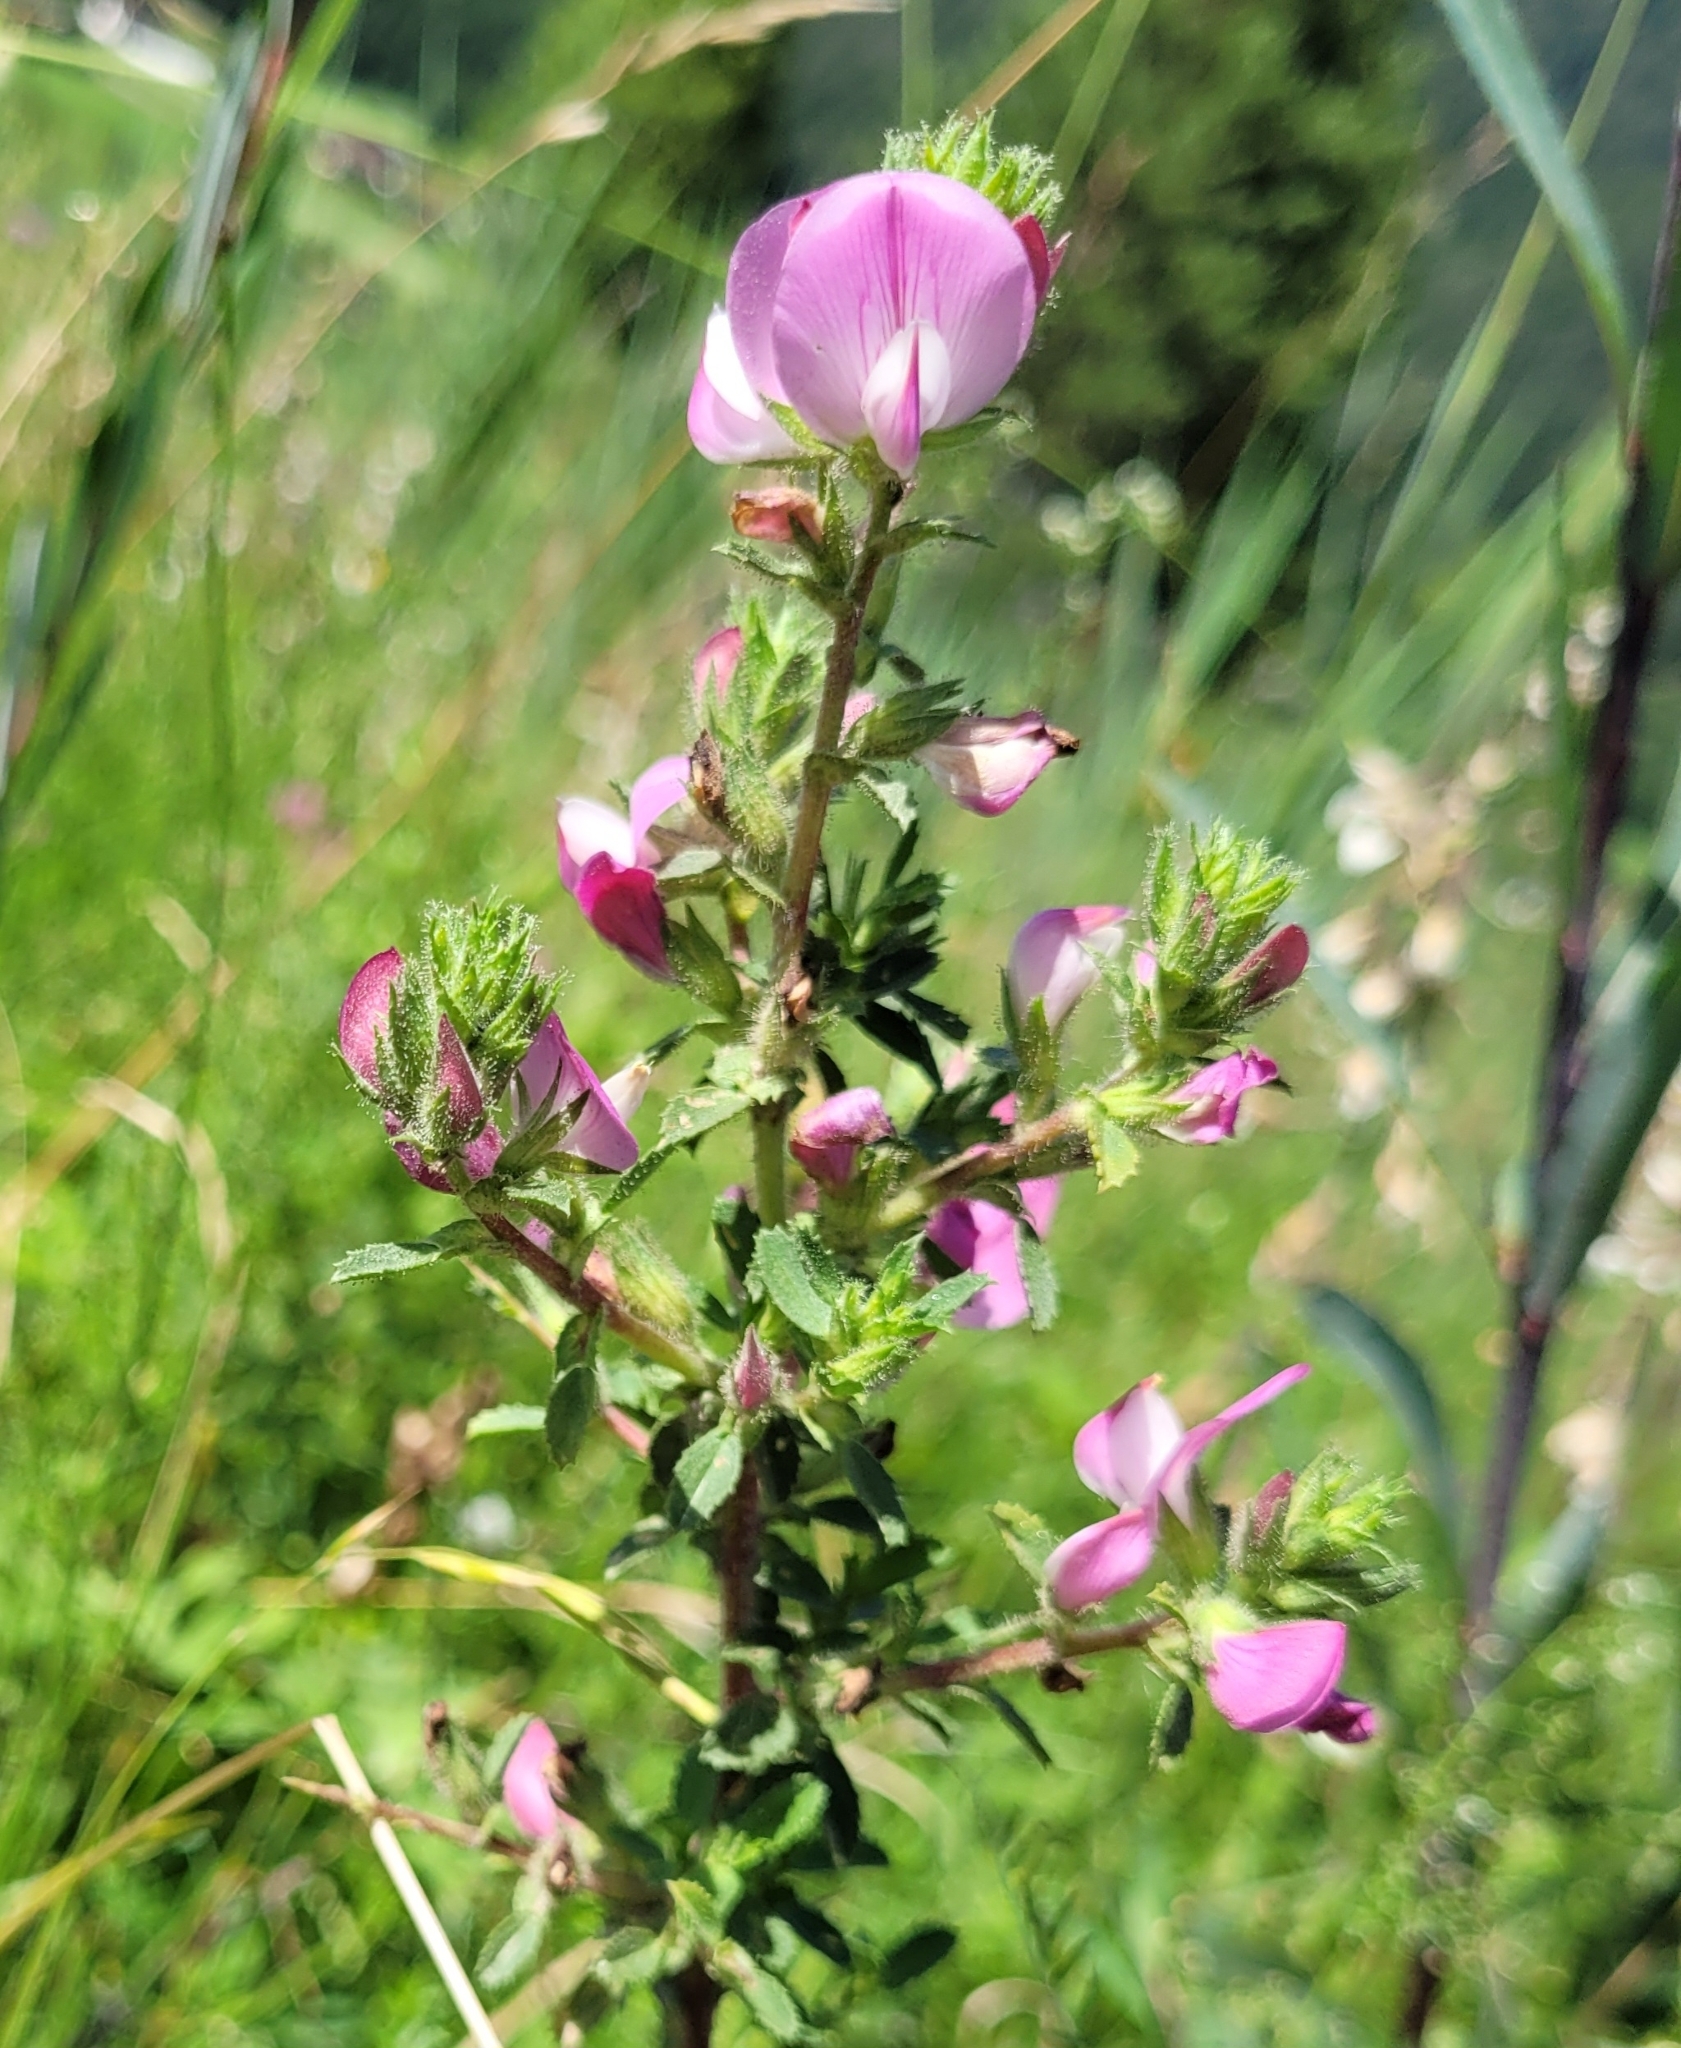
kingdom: Plantae
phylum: Tracheophyta
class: Magnoliopsida
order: Fabales
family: Fabaceae
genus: Ononis
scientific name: Ononis spinosa
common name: Spiny restharrow
